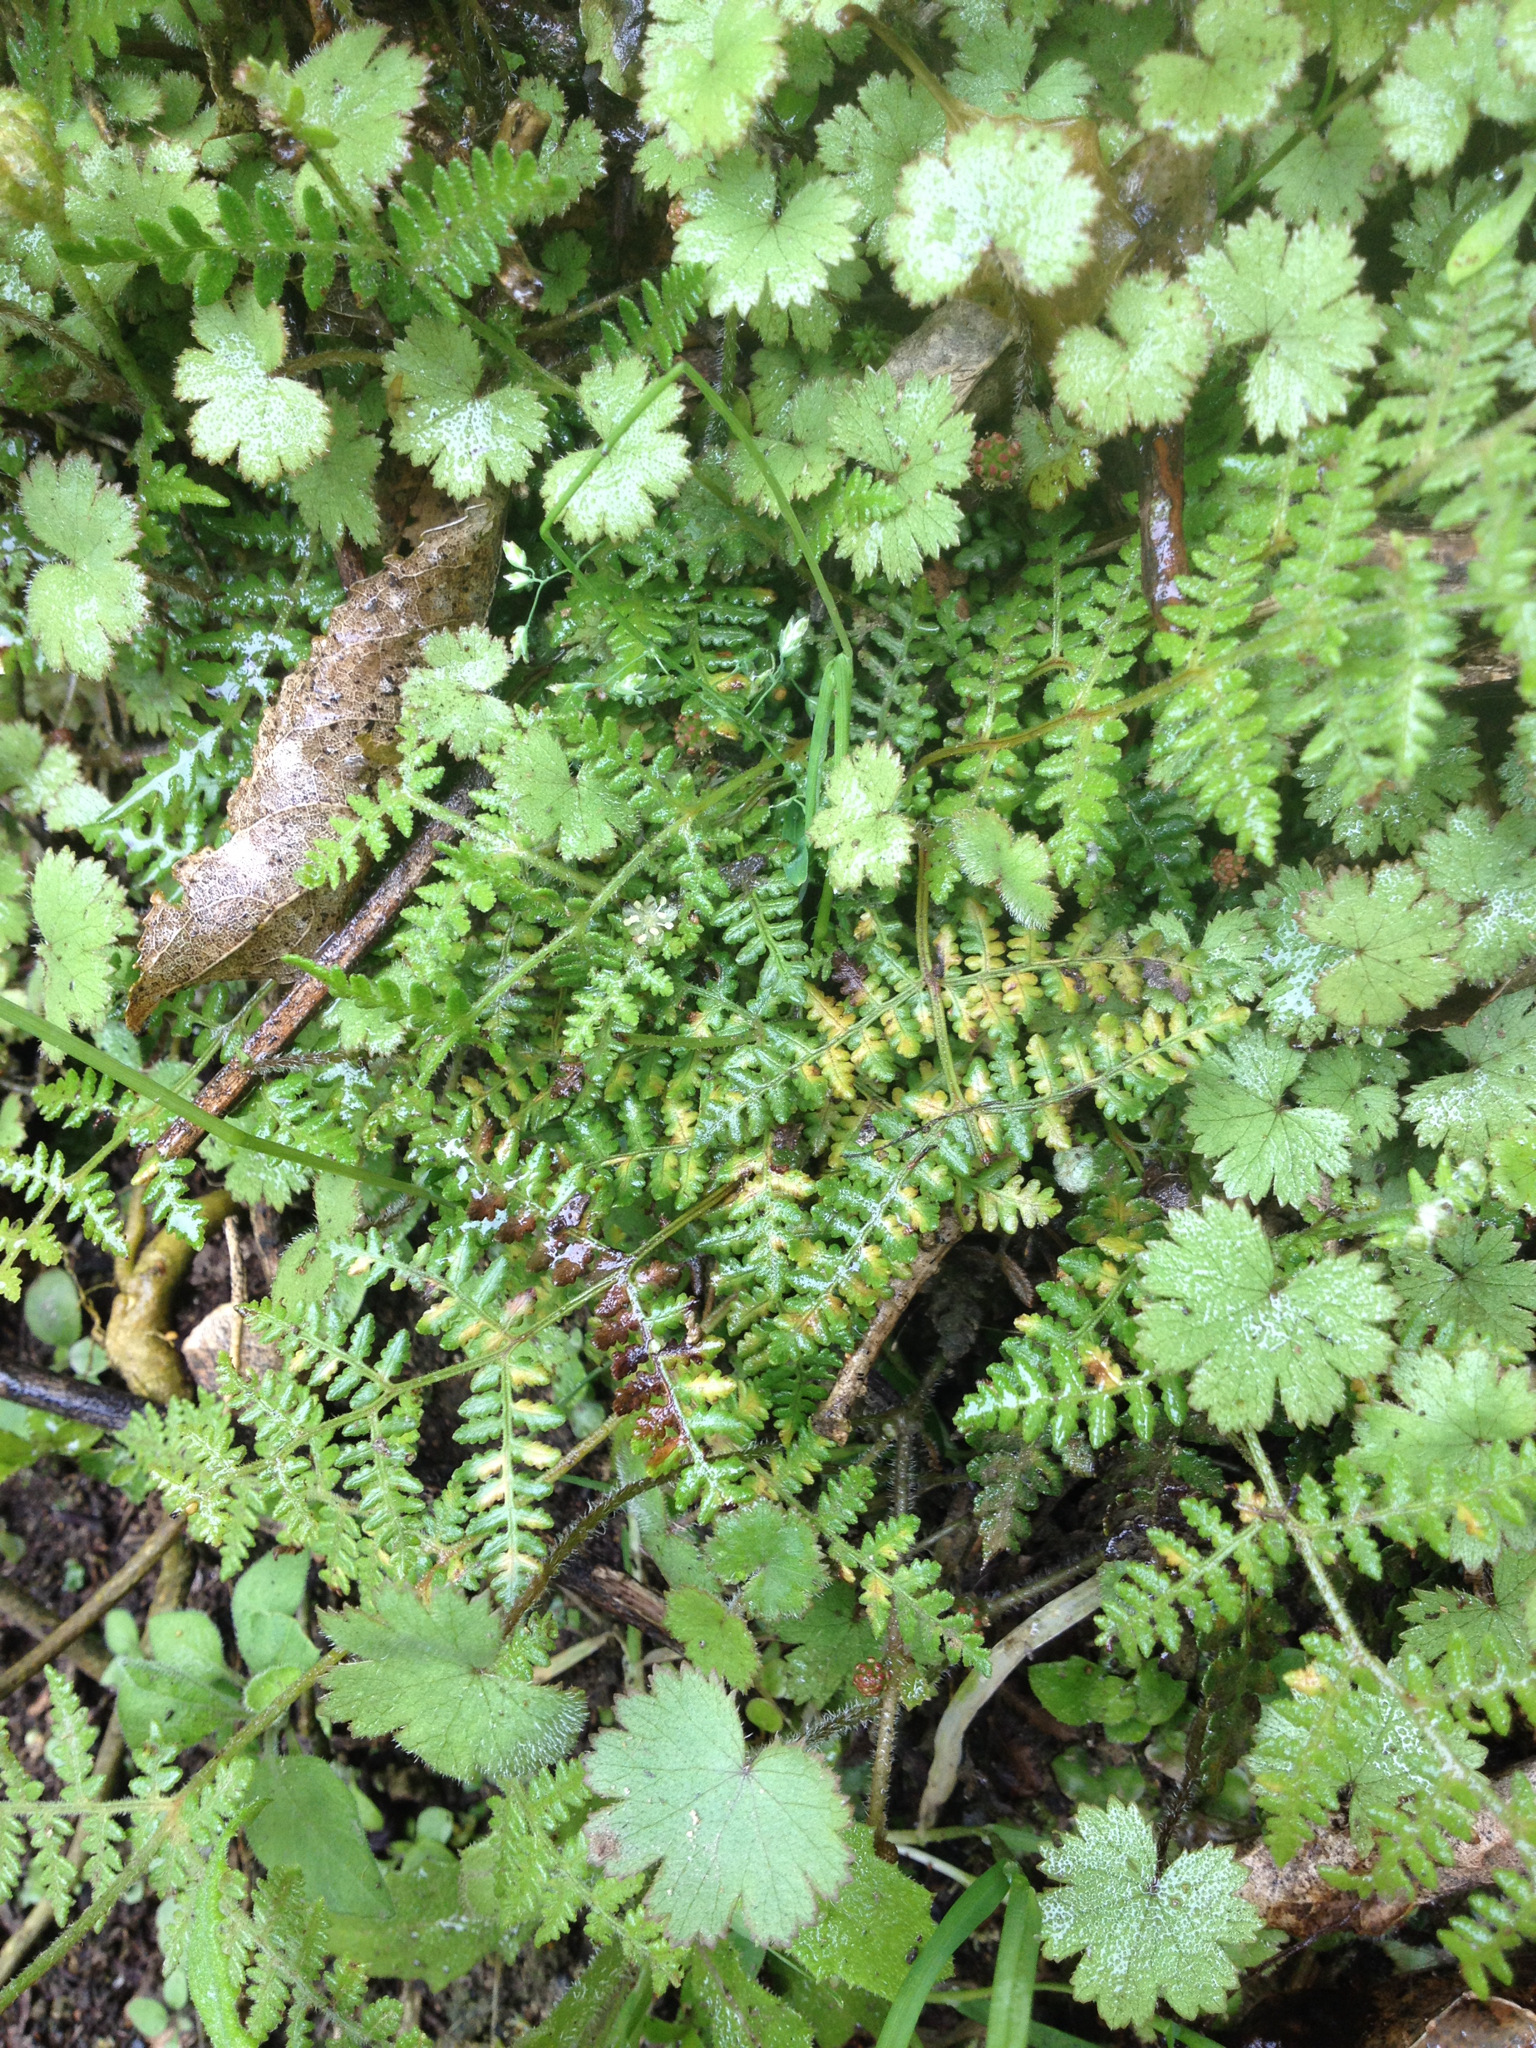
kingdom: Plantae
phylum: Tracheophyta
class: Polypodiopsida
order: Polypodiales
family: Dennstaedtiaceae
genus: Hypolepis
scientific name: Hypolepis ambigua
